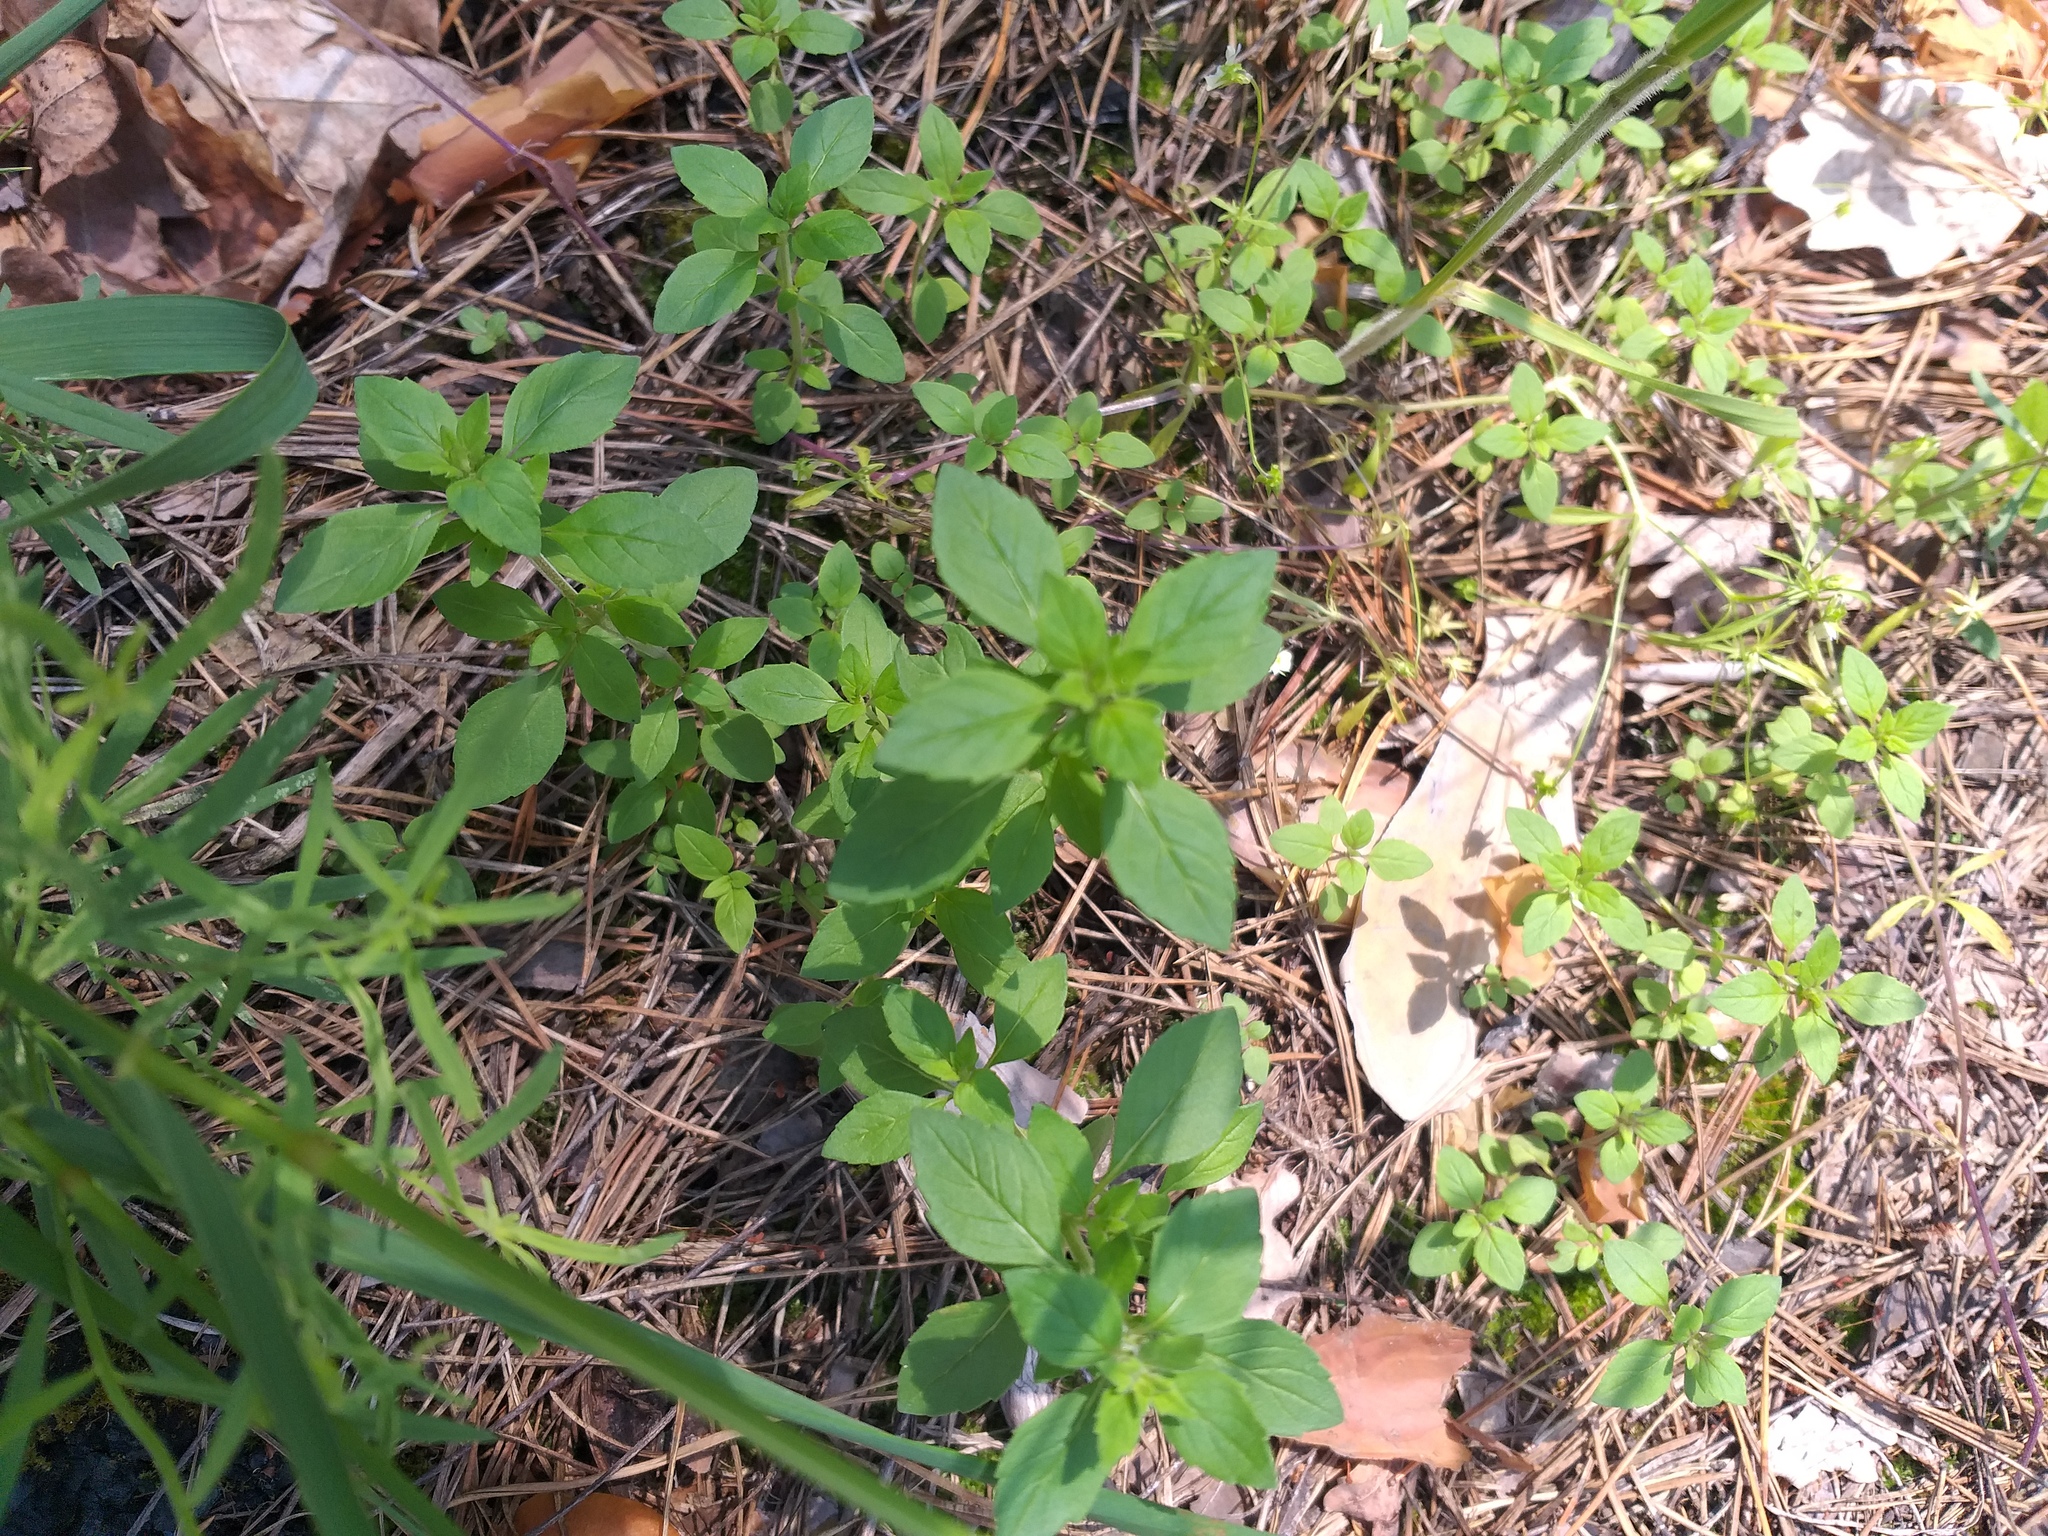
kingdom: Plantae
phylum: Tracheophyta
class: Magnoliopsida
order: Lamiales
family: Lamiaceae
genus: Clinopodium
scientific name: Clinopodium acinos
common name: Basil thyme
